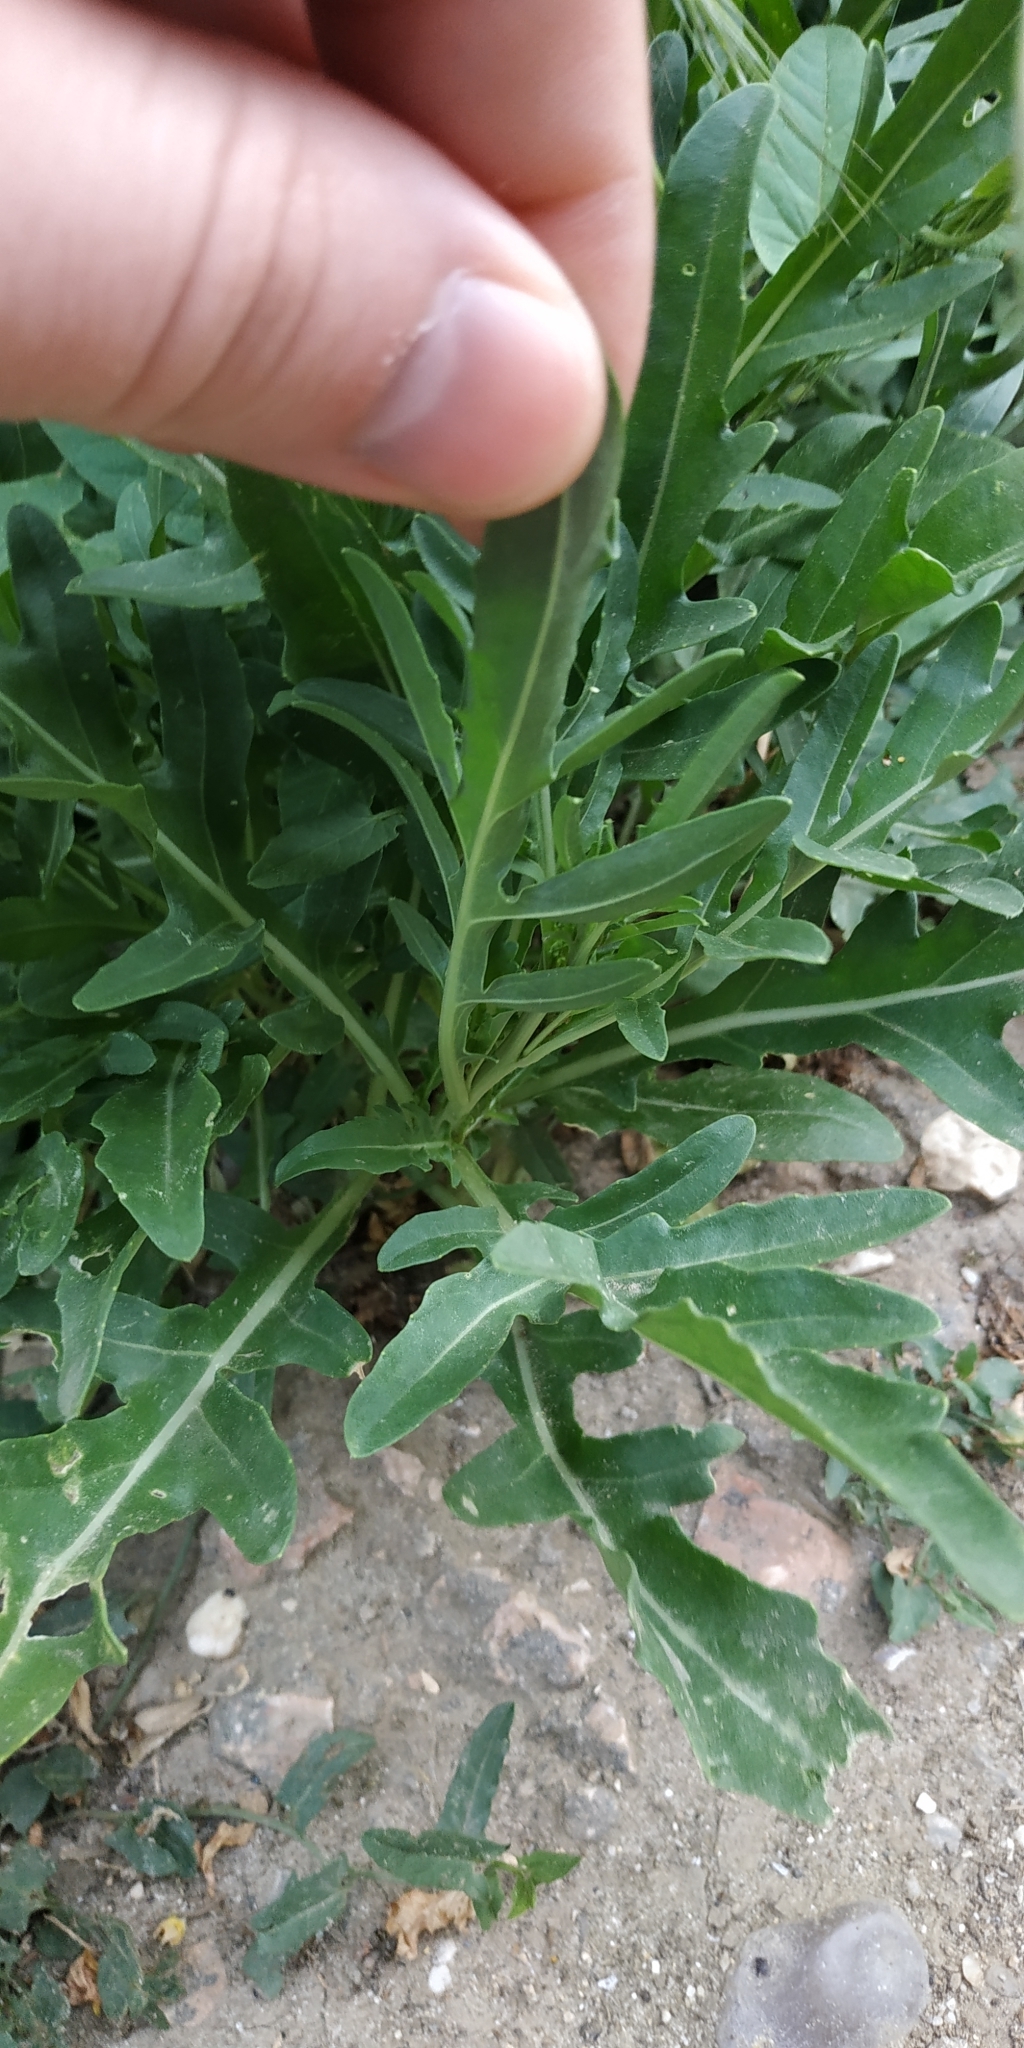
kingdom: Plantae
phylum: Tracheophyta
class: Magnoliopsida
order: Brassicales
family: Brassicaceae
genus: Diplotaxis
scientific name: Diplotaxis tenuifolia
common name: Perennial wall-rocket
